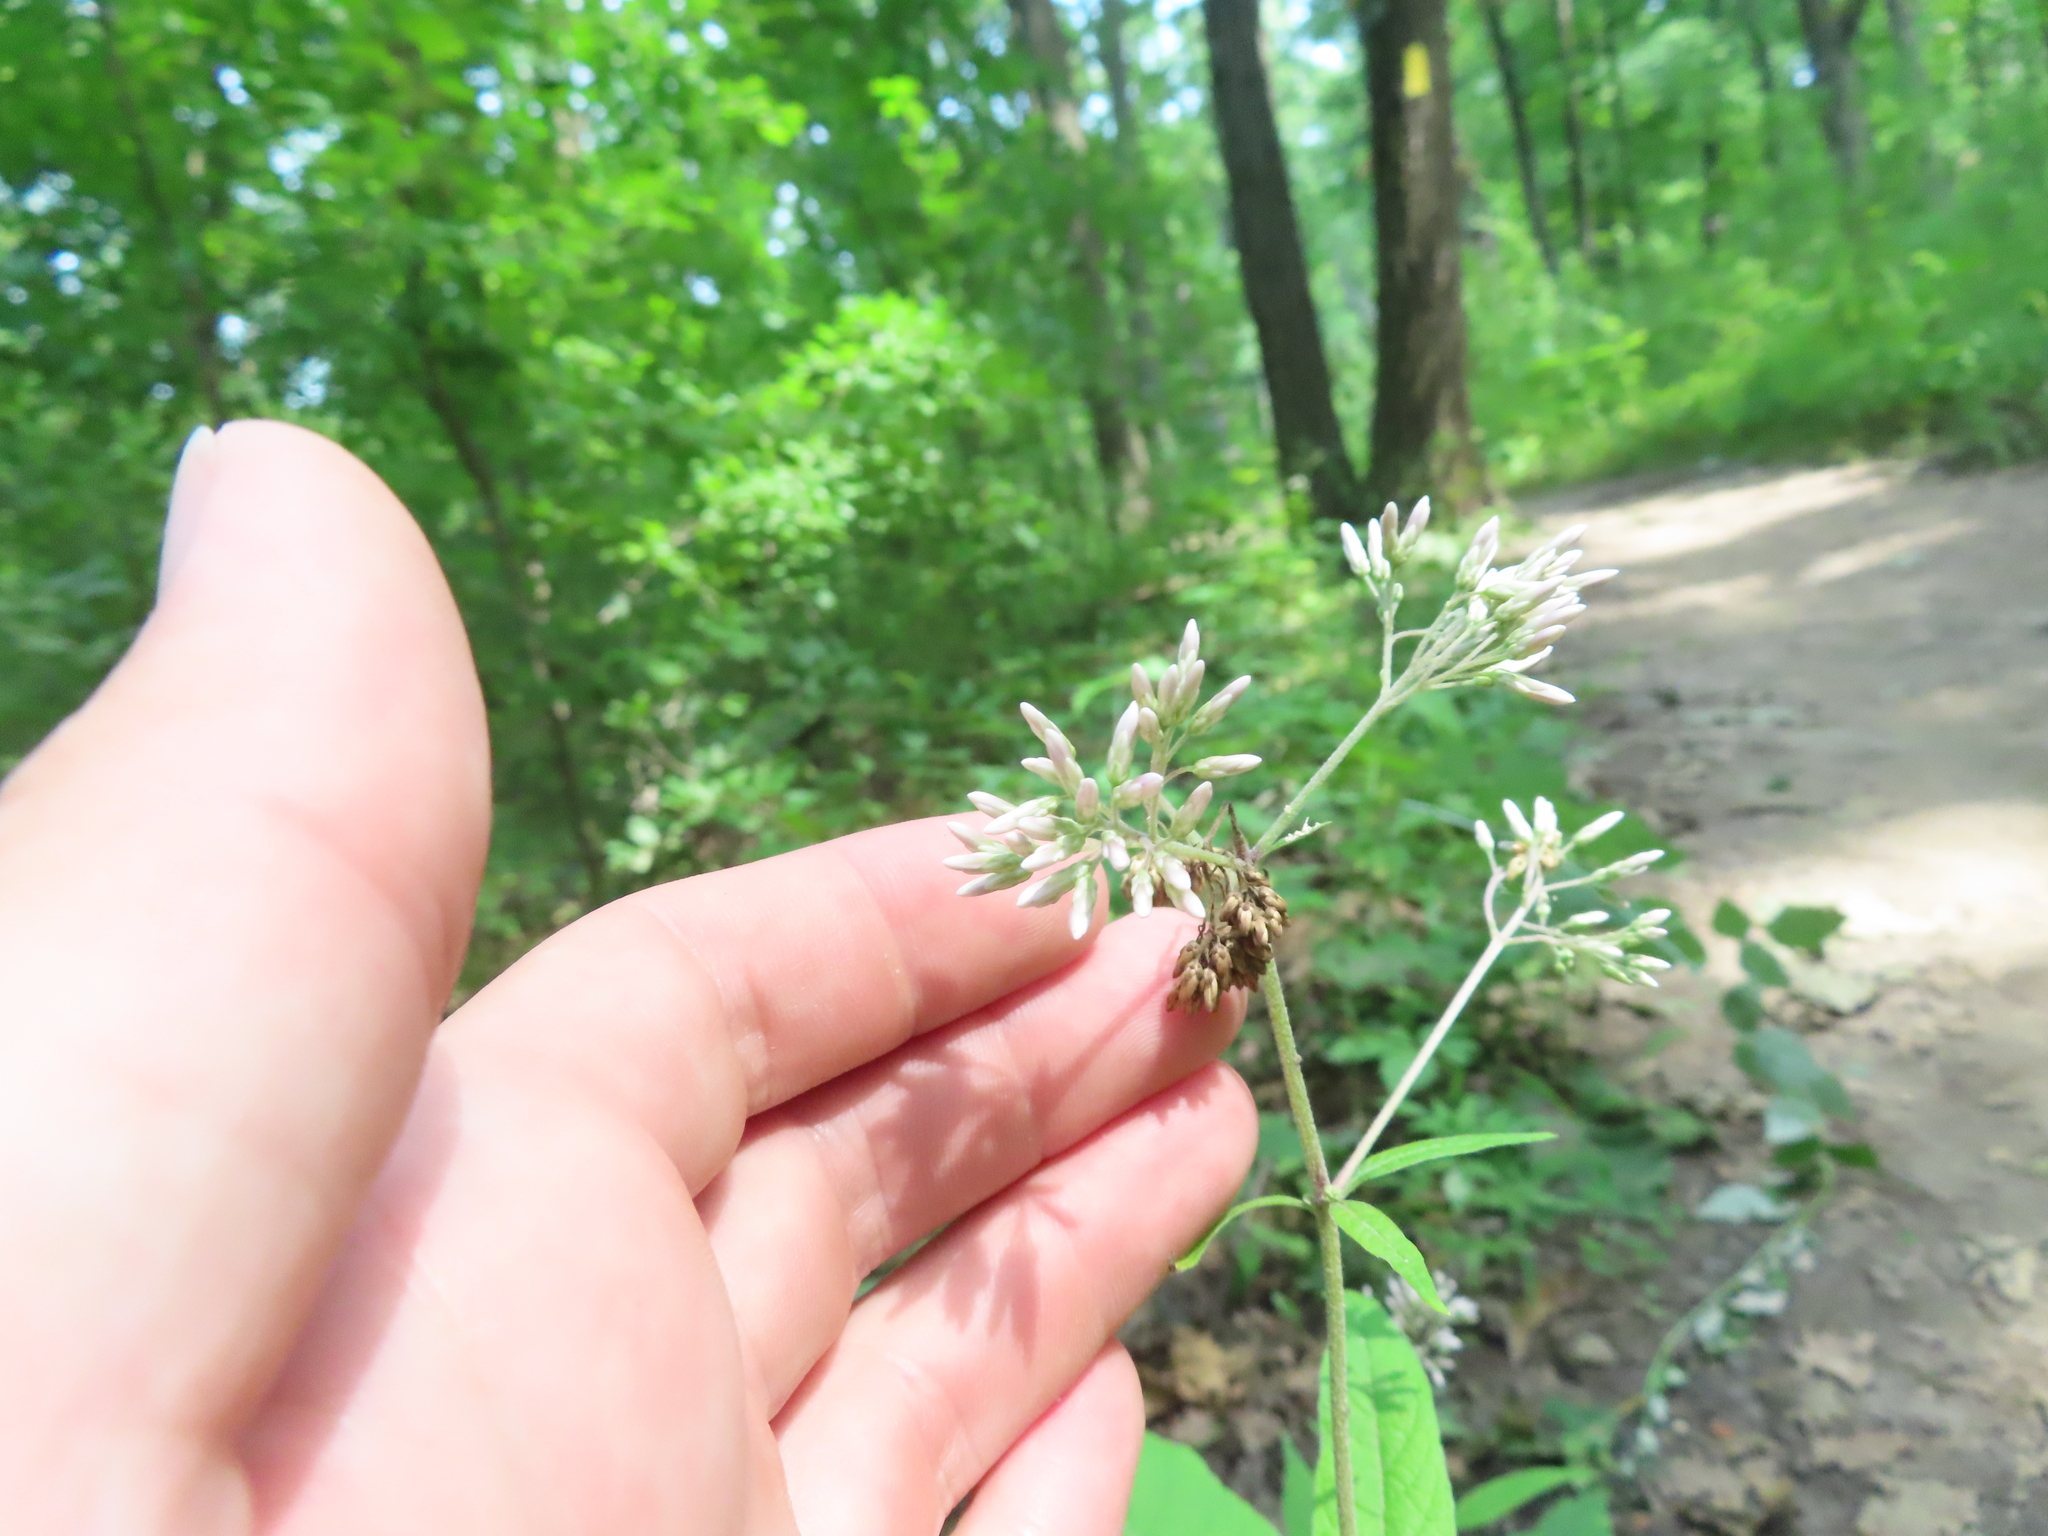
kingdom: Plantae
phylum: Tracheophyta
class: Magnoliopsida
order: Asterales
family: Asteraceae
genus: Eutrochium
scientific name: Eutrochium purpureum
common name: Gravelroot
